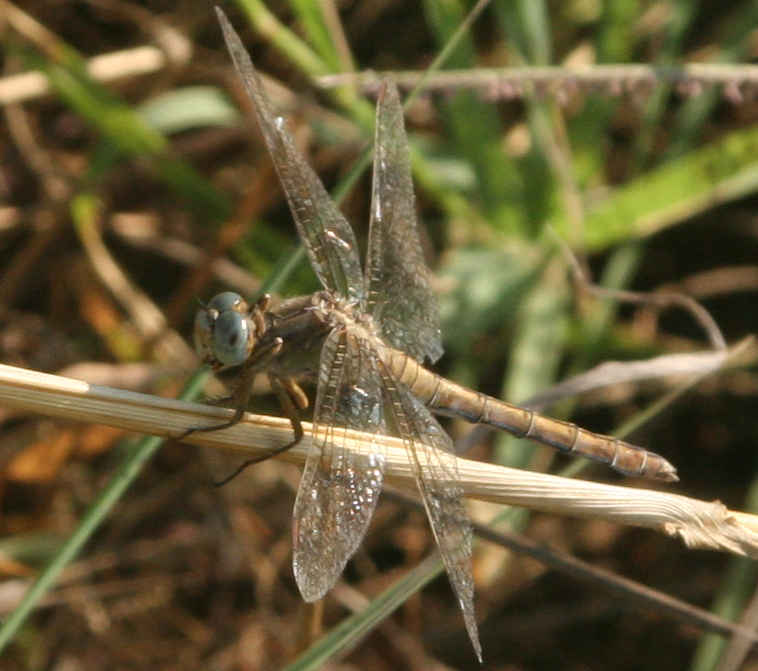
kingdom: Animalia
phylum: Arthropoda
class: Insecta
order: Odonata
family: Libellulidae
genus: Orthetrum
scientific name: Orthetrum coerulescens
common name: Keeled skimmer
